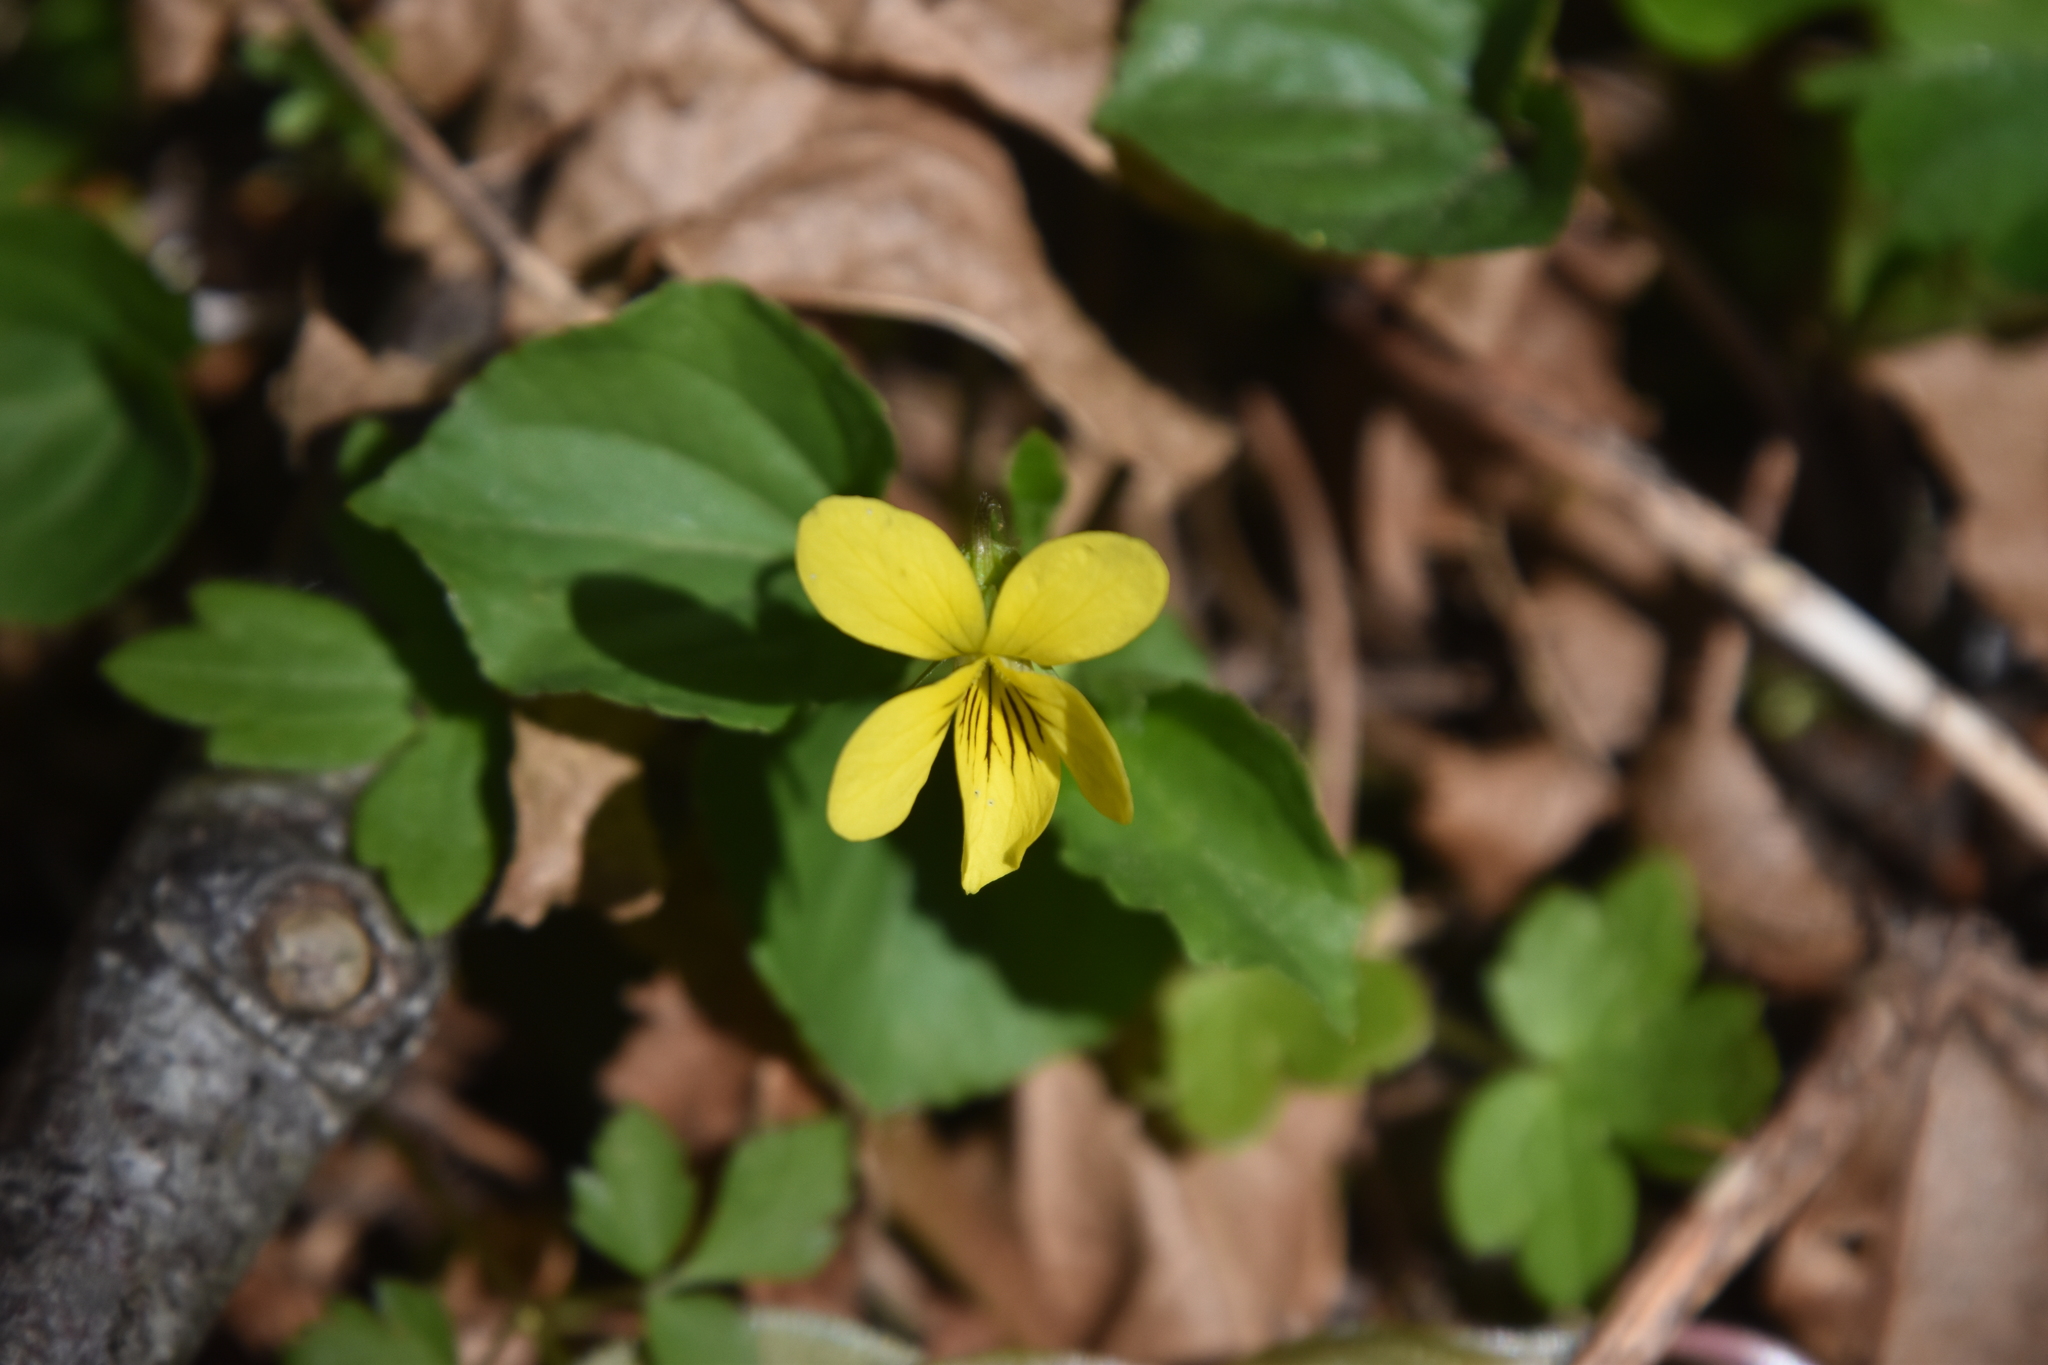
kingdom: Plantae
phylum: Tracheophyta
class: Magnoliopsida
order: Malpighiales
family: Violaceae
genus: Viola
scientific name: Viola glabella
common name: Stream violet
